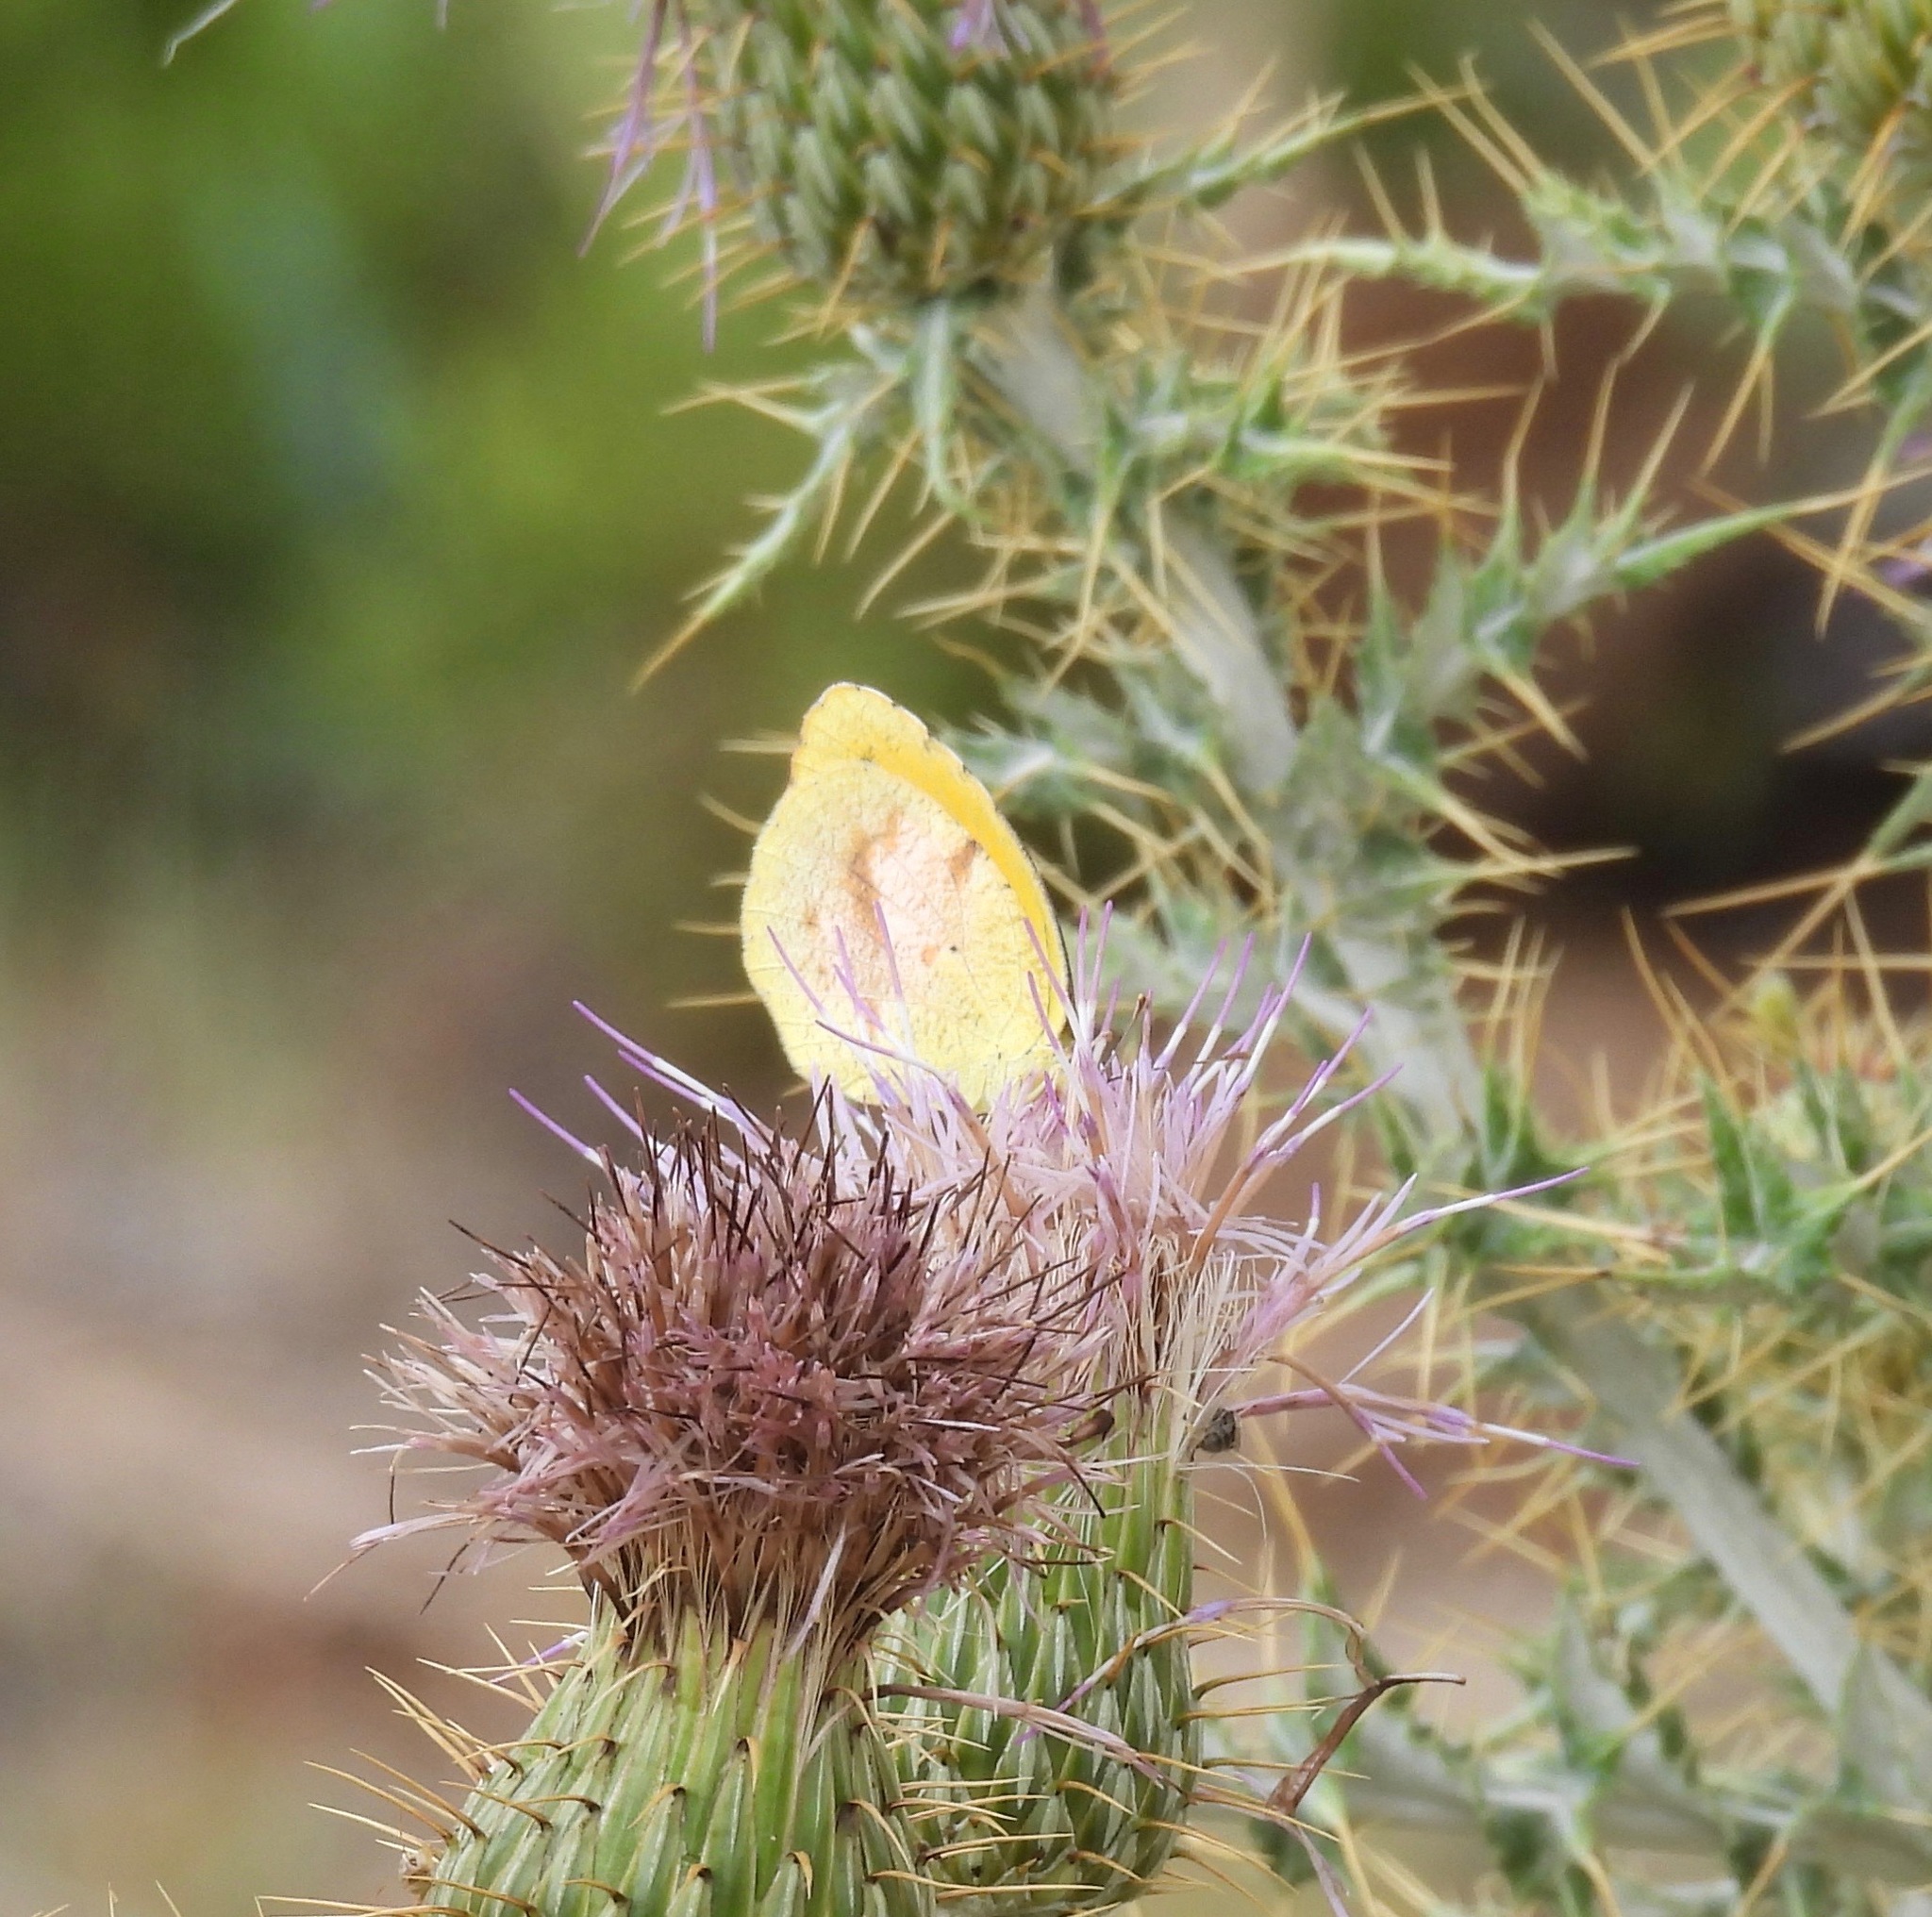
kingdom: Animalia
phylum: Arthropoda
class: Insecta
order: Lepidoptera
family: Pieridae
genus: Abaeis
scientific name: Abaeis nicippe
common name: Sleepy orange
